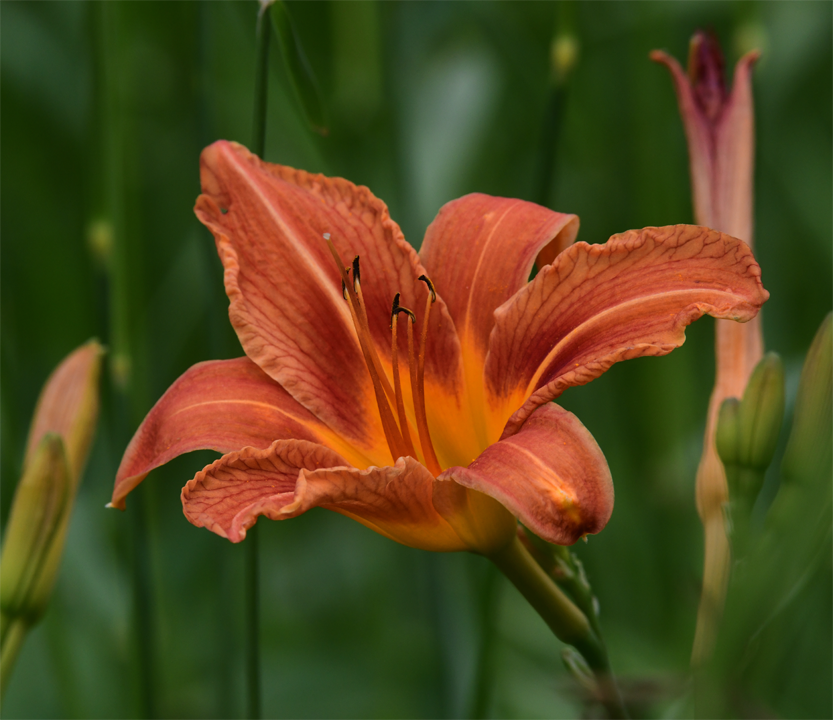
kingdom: Plantae
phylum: Tracheophyta
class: Liliopsida
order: Asparagales
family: Asphodelaceae
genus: Hemerocallis
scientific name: Hemerocallis fulva
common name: Orange day-lily
